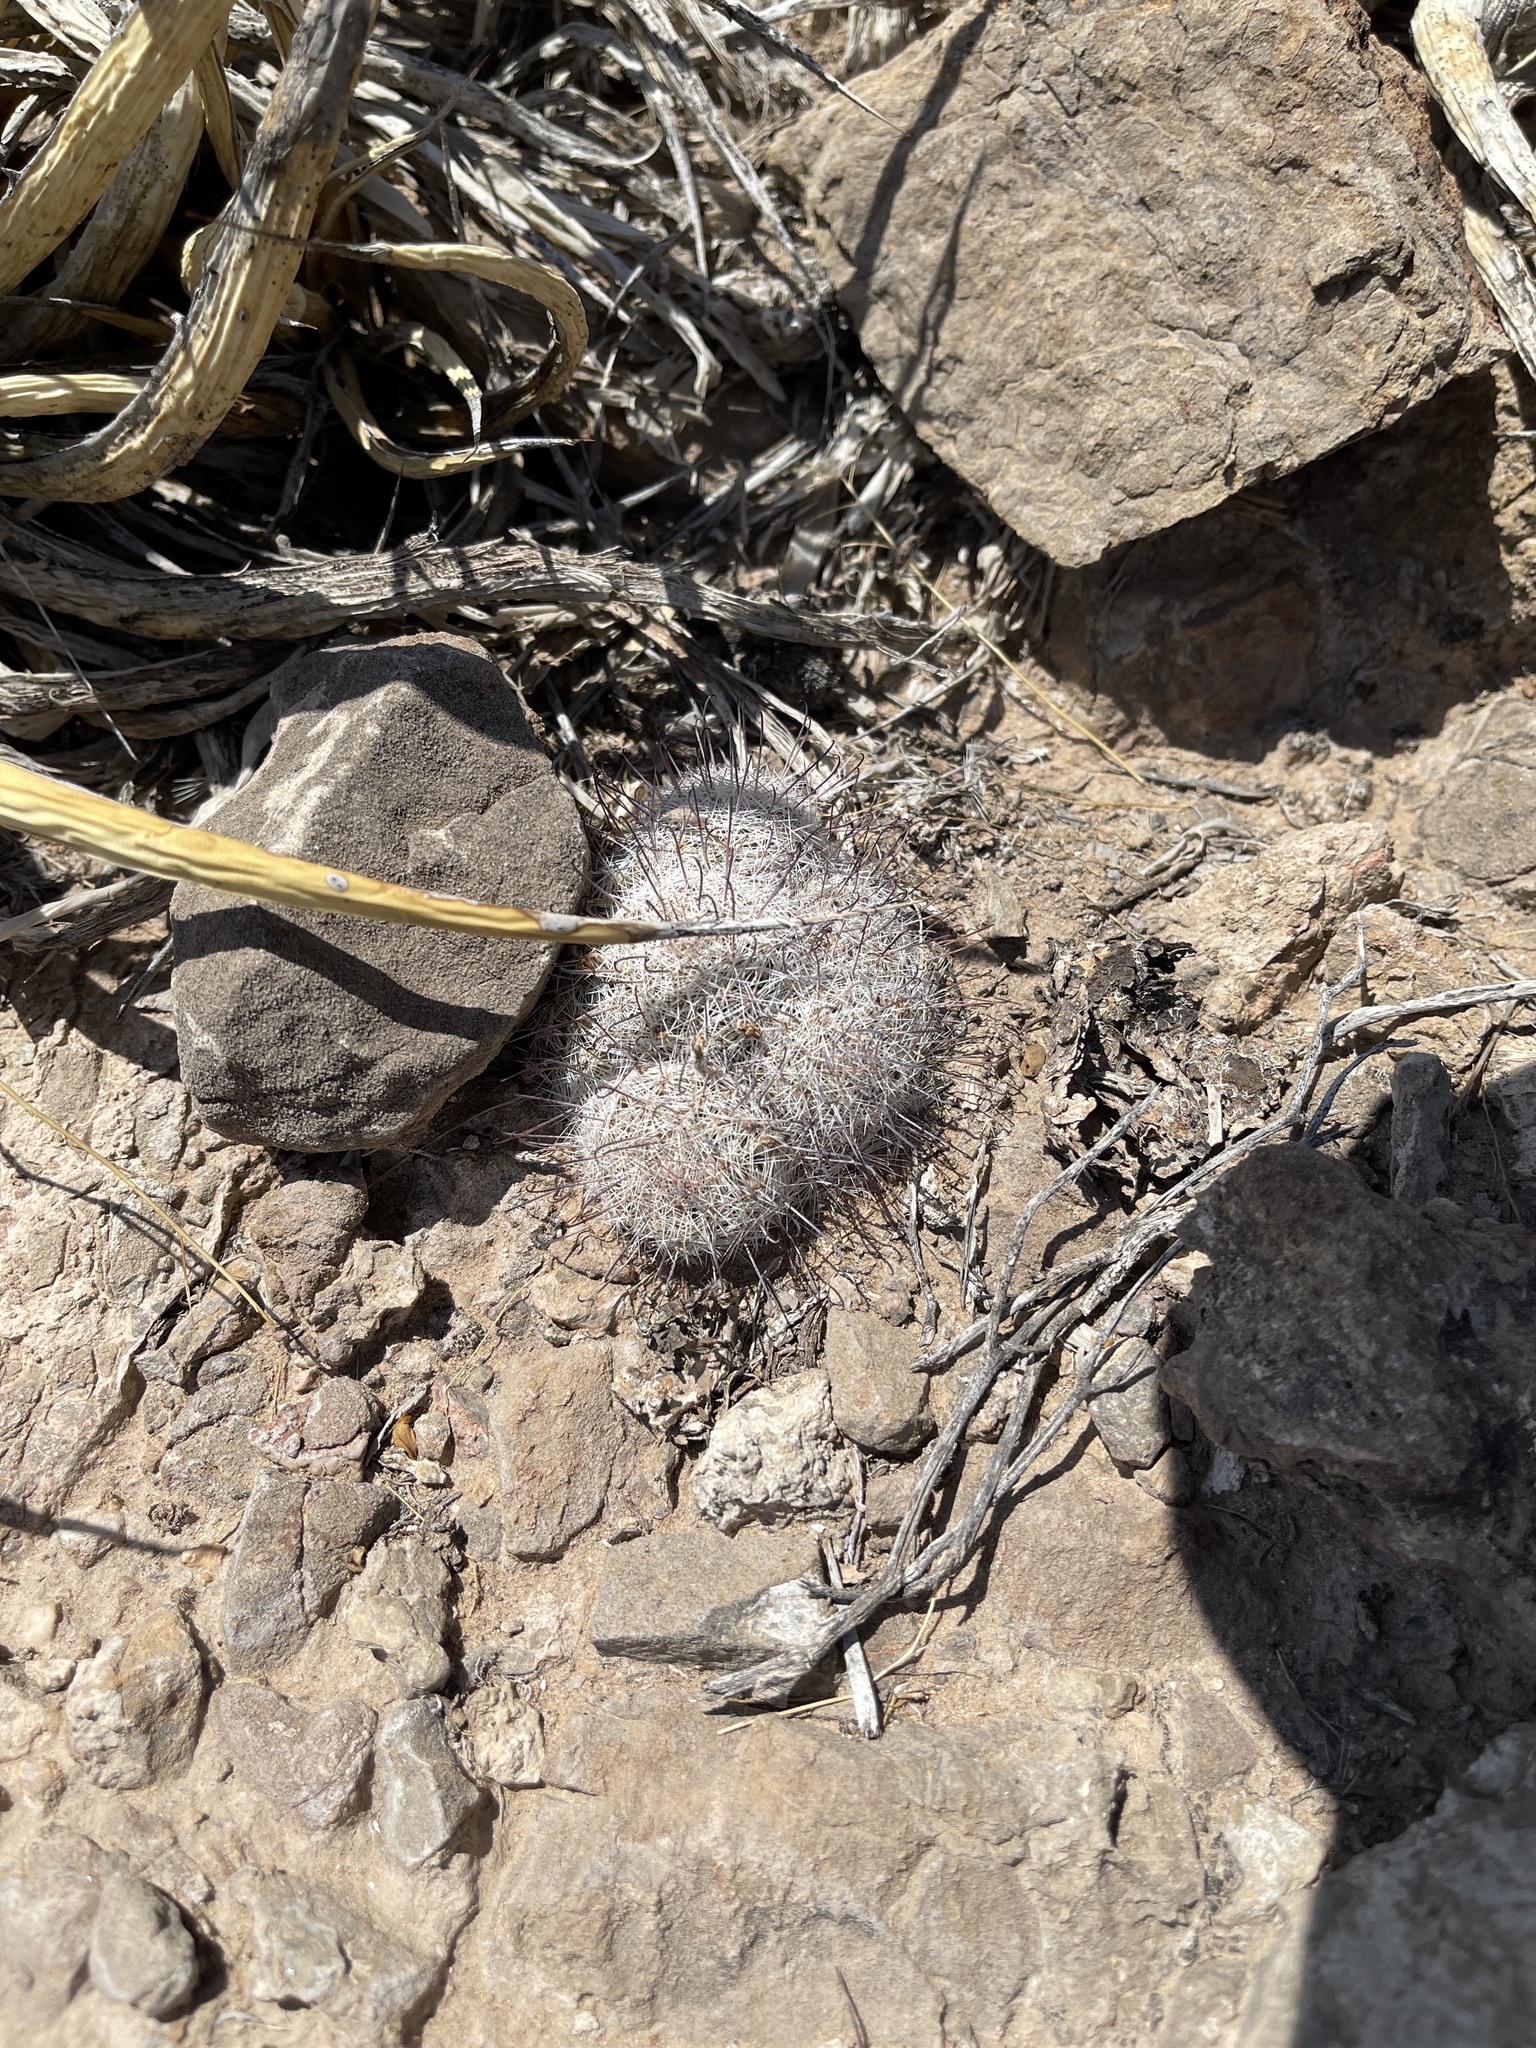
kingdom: Plantae
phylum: Tracheophyta
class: Magnoliopsida
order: Caryophyllales
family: Cactaceae
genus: Cochemiea
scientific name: Cochemiea grahamii
